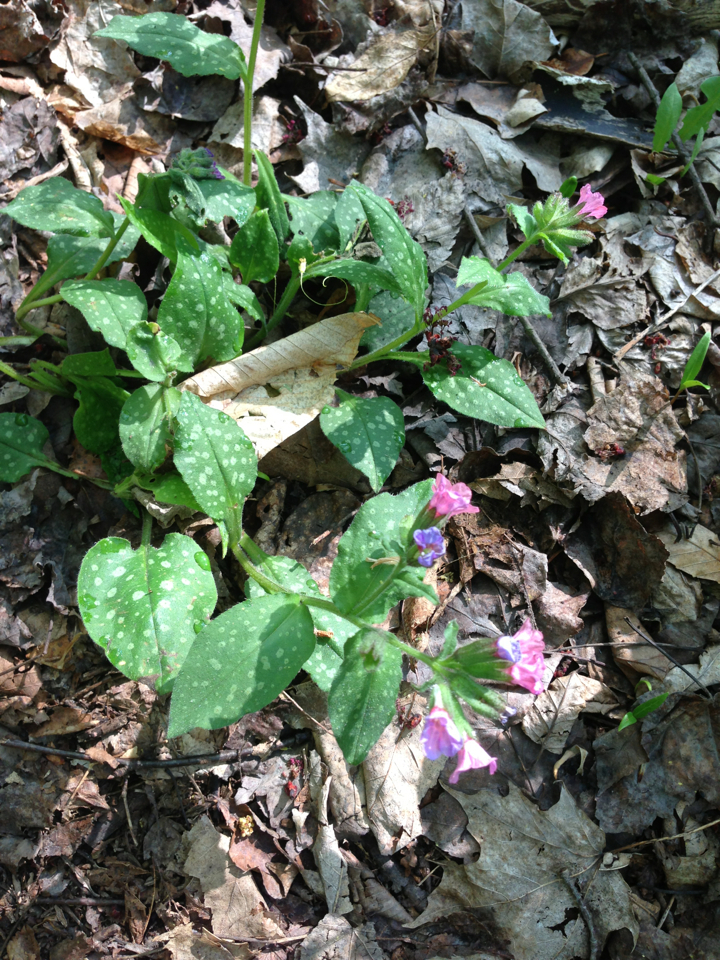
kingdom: Plantae
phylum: Tracheophyta
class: Magnoliopsida
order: Boraginales
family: Boraginaceae
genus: Pulmonaria
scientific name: Pulmonaria officinalis
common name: Lungwort
